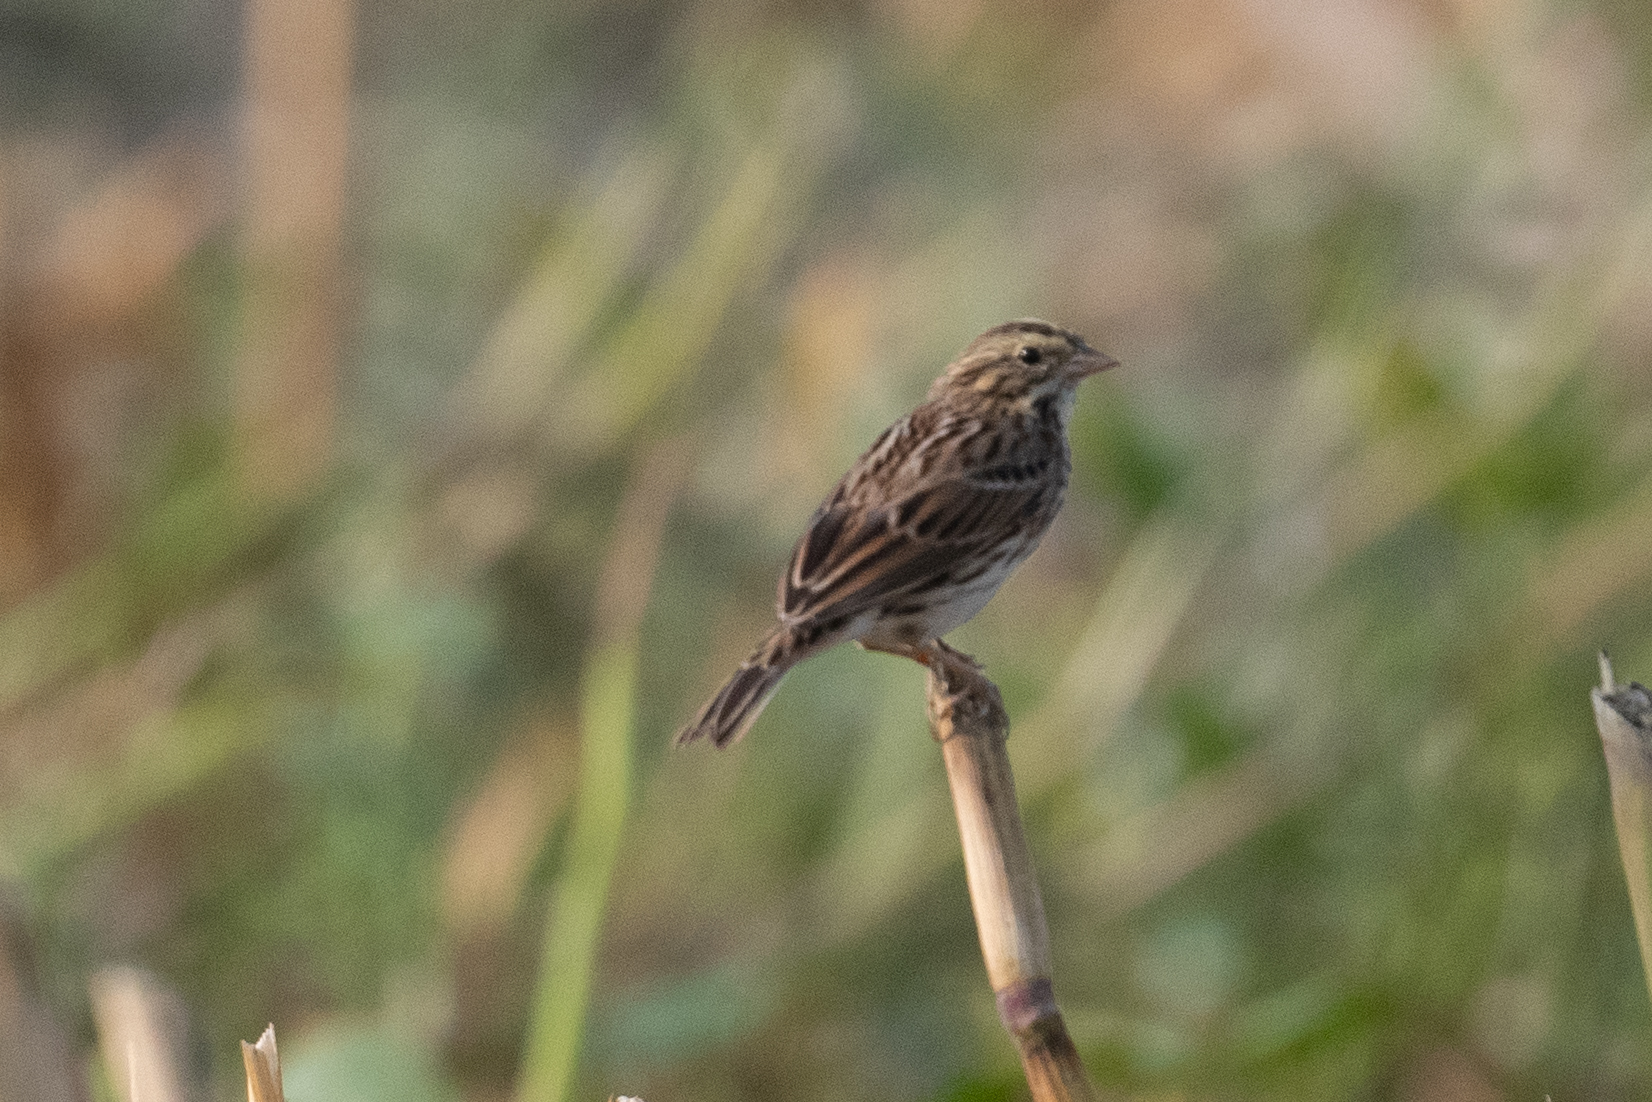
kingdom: Animalia
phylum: Chordata
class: Aves
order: Passeriformes
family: Passerellidae
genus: Passerculus
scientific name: Passerculus sandwichensis
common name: Savannah sparrow
